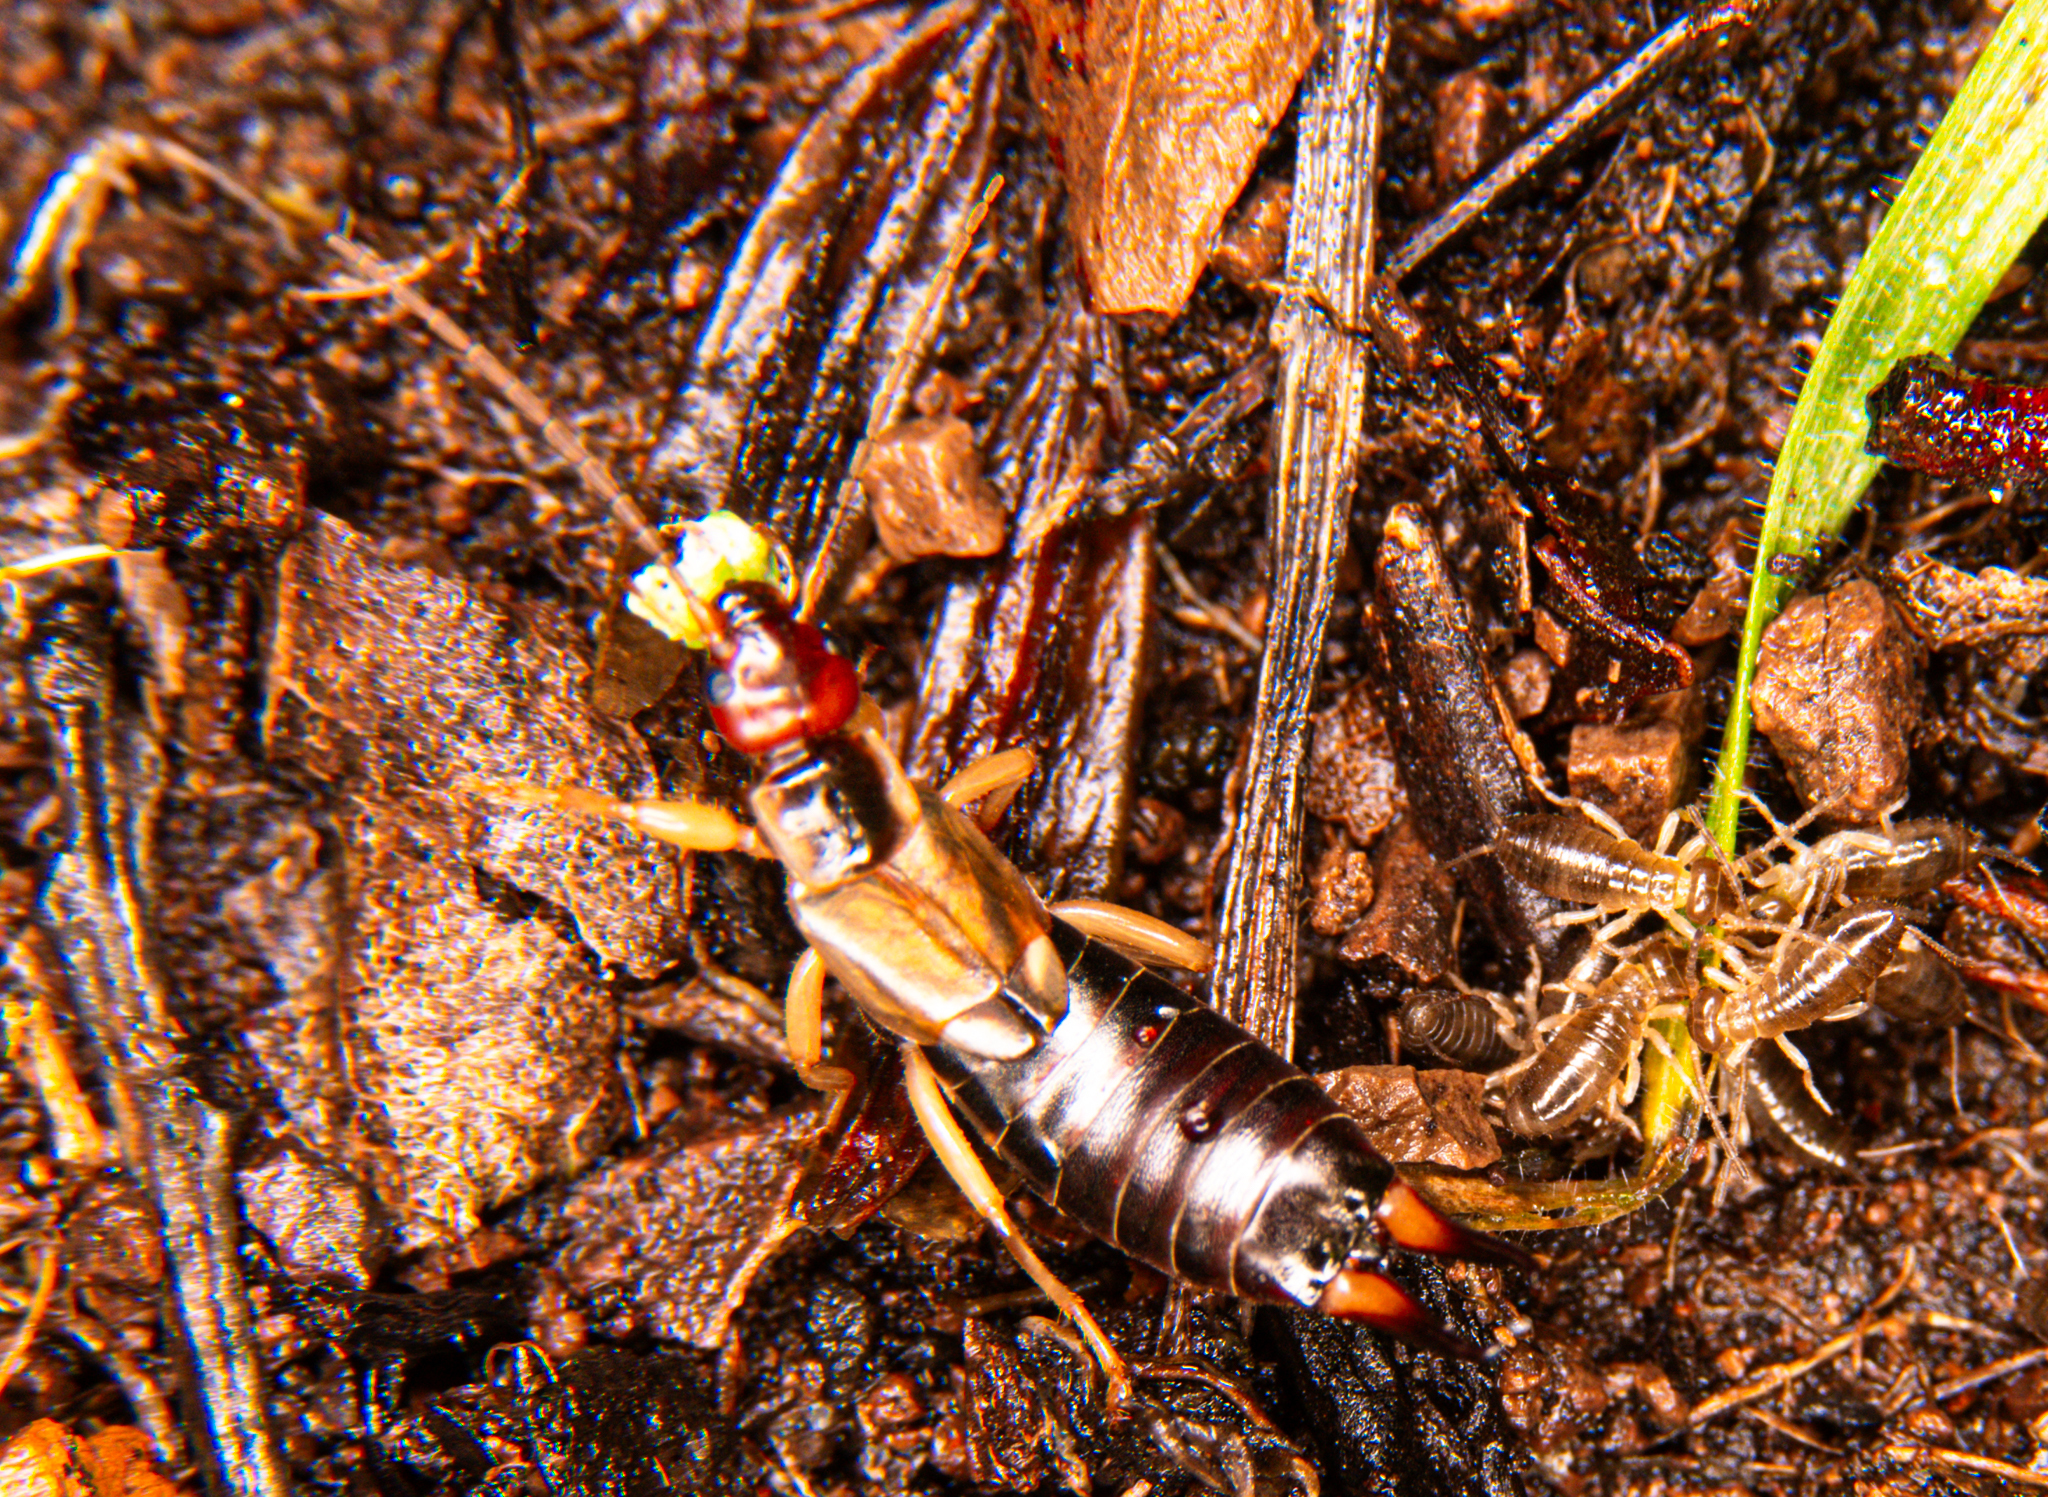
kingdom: Animalia
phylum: Arthropoda
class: Insecta
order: Dermaptera
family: Forficulidae
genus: Forficula
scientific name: Forficula dentata
